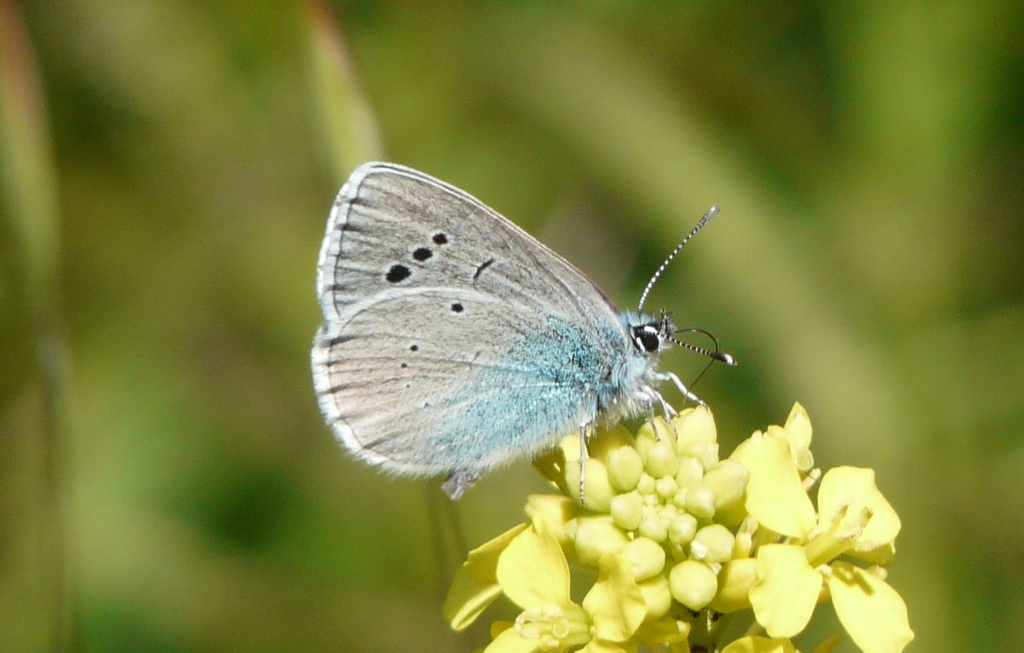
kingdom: Animalia
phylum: Arthropoda
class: Insecta
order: Lepidoptera
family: Lycaenidae
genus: Glaucopsyche
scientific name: Glaucopsyche alexis
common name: Green-underside blue
